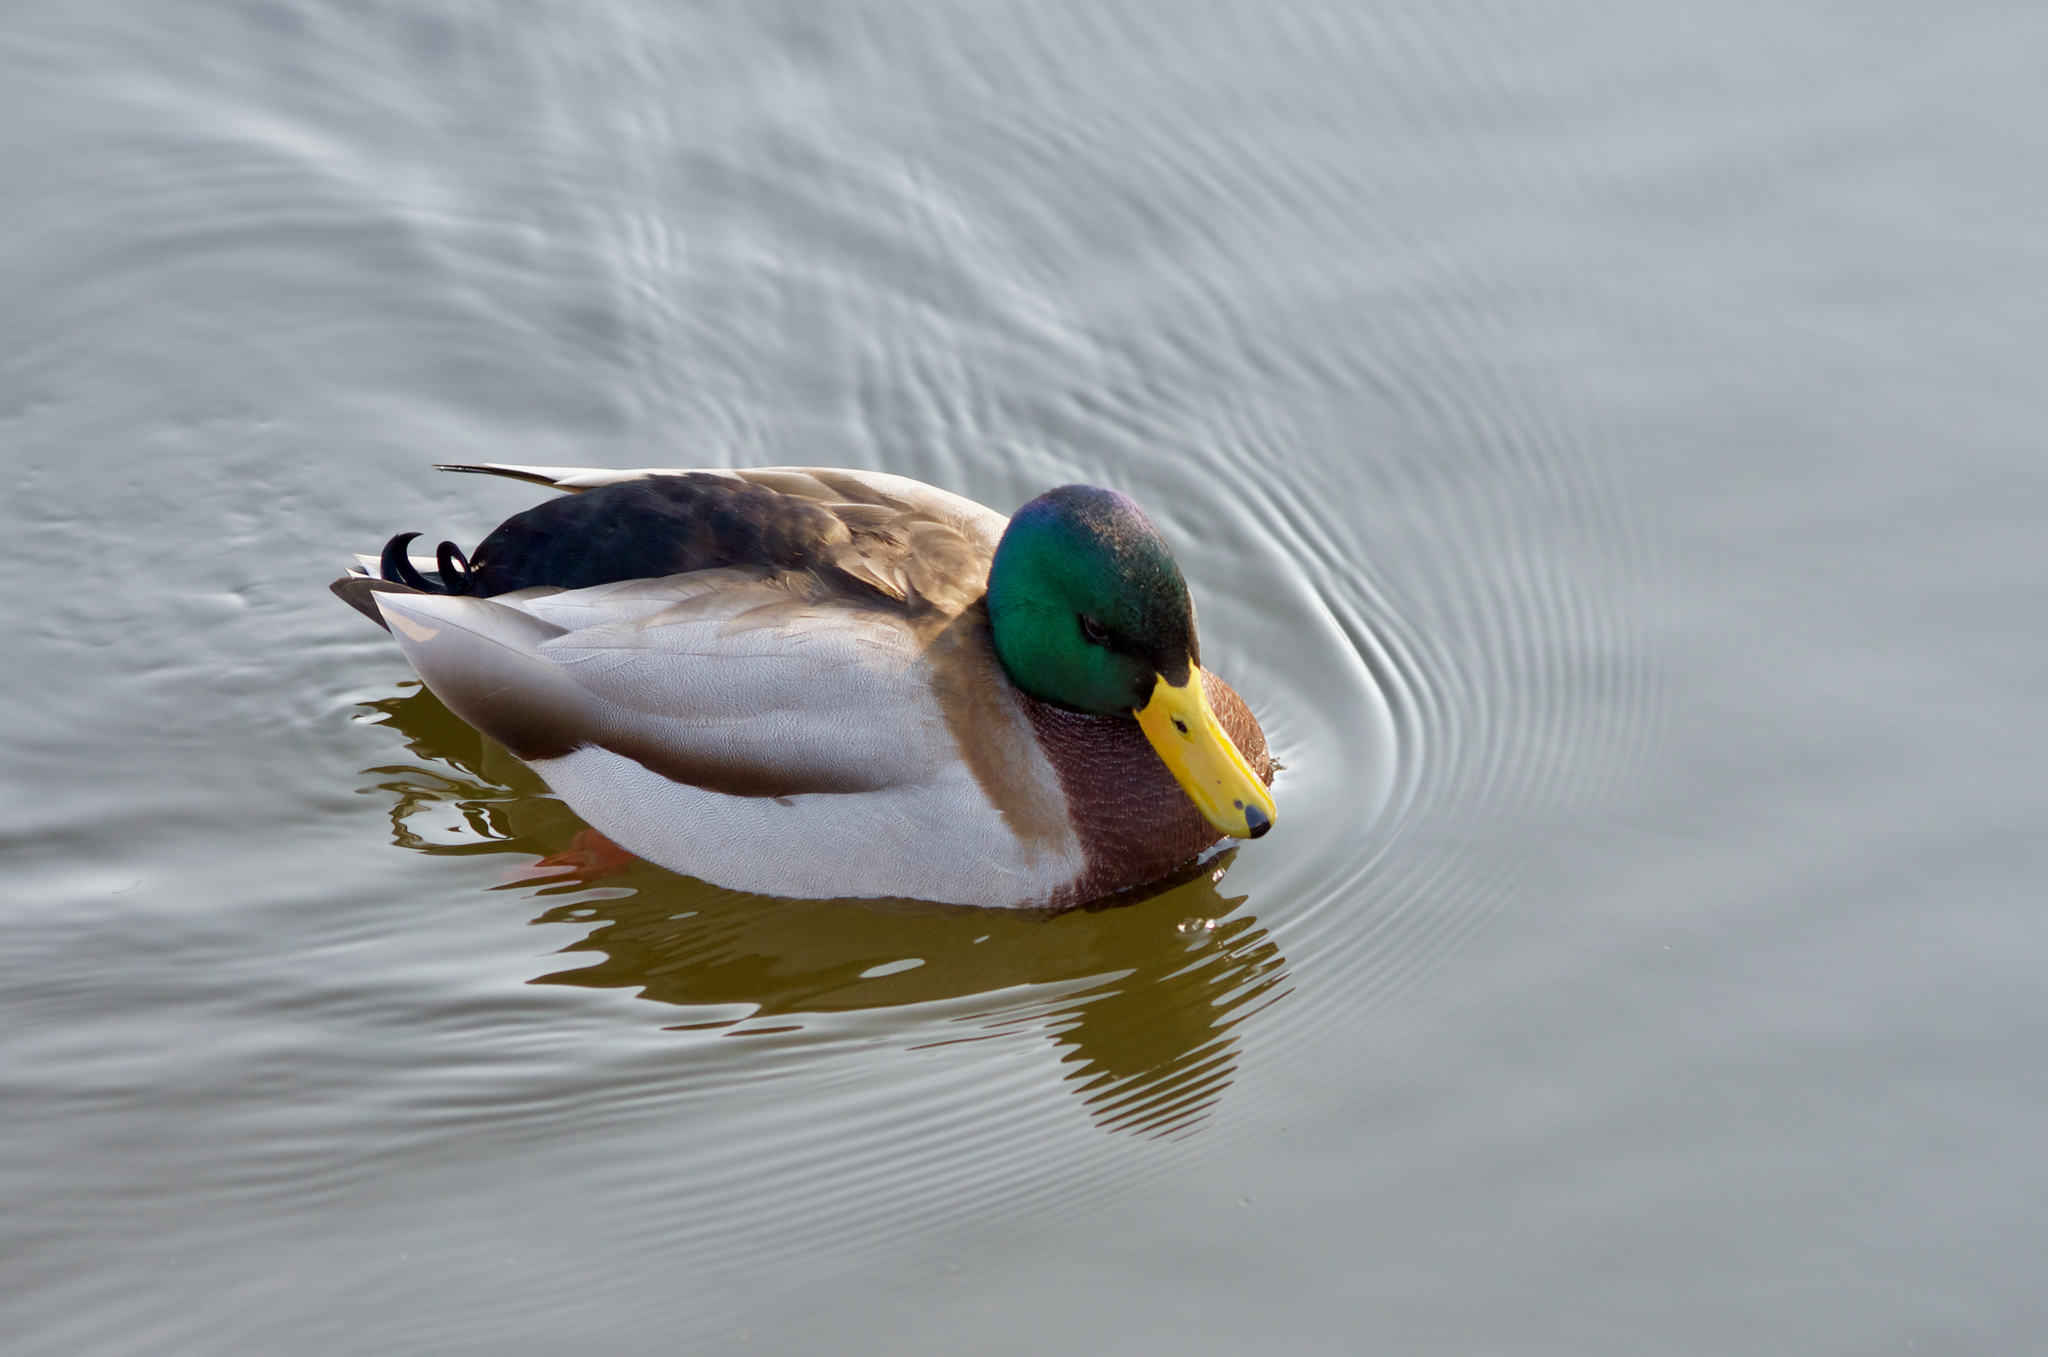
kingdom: Animalia
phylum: Chordata
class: Aves
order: Anseriformes
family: Anatidae
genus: Anas
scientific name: Anas platyrhynchos
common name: Mallard
